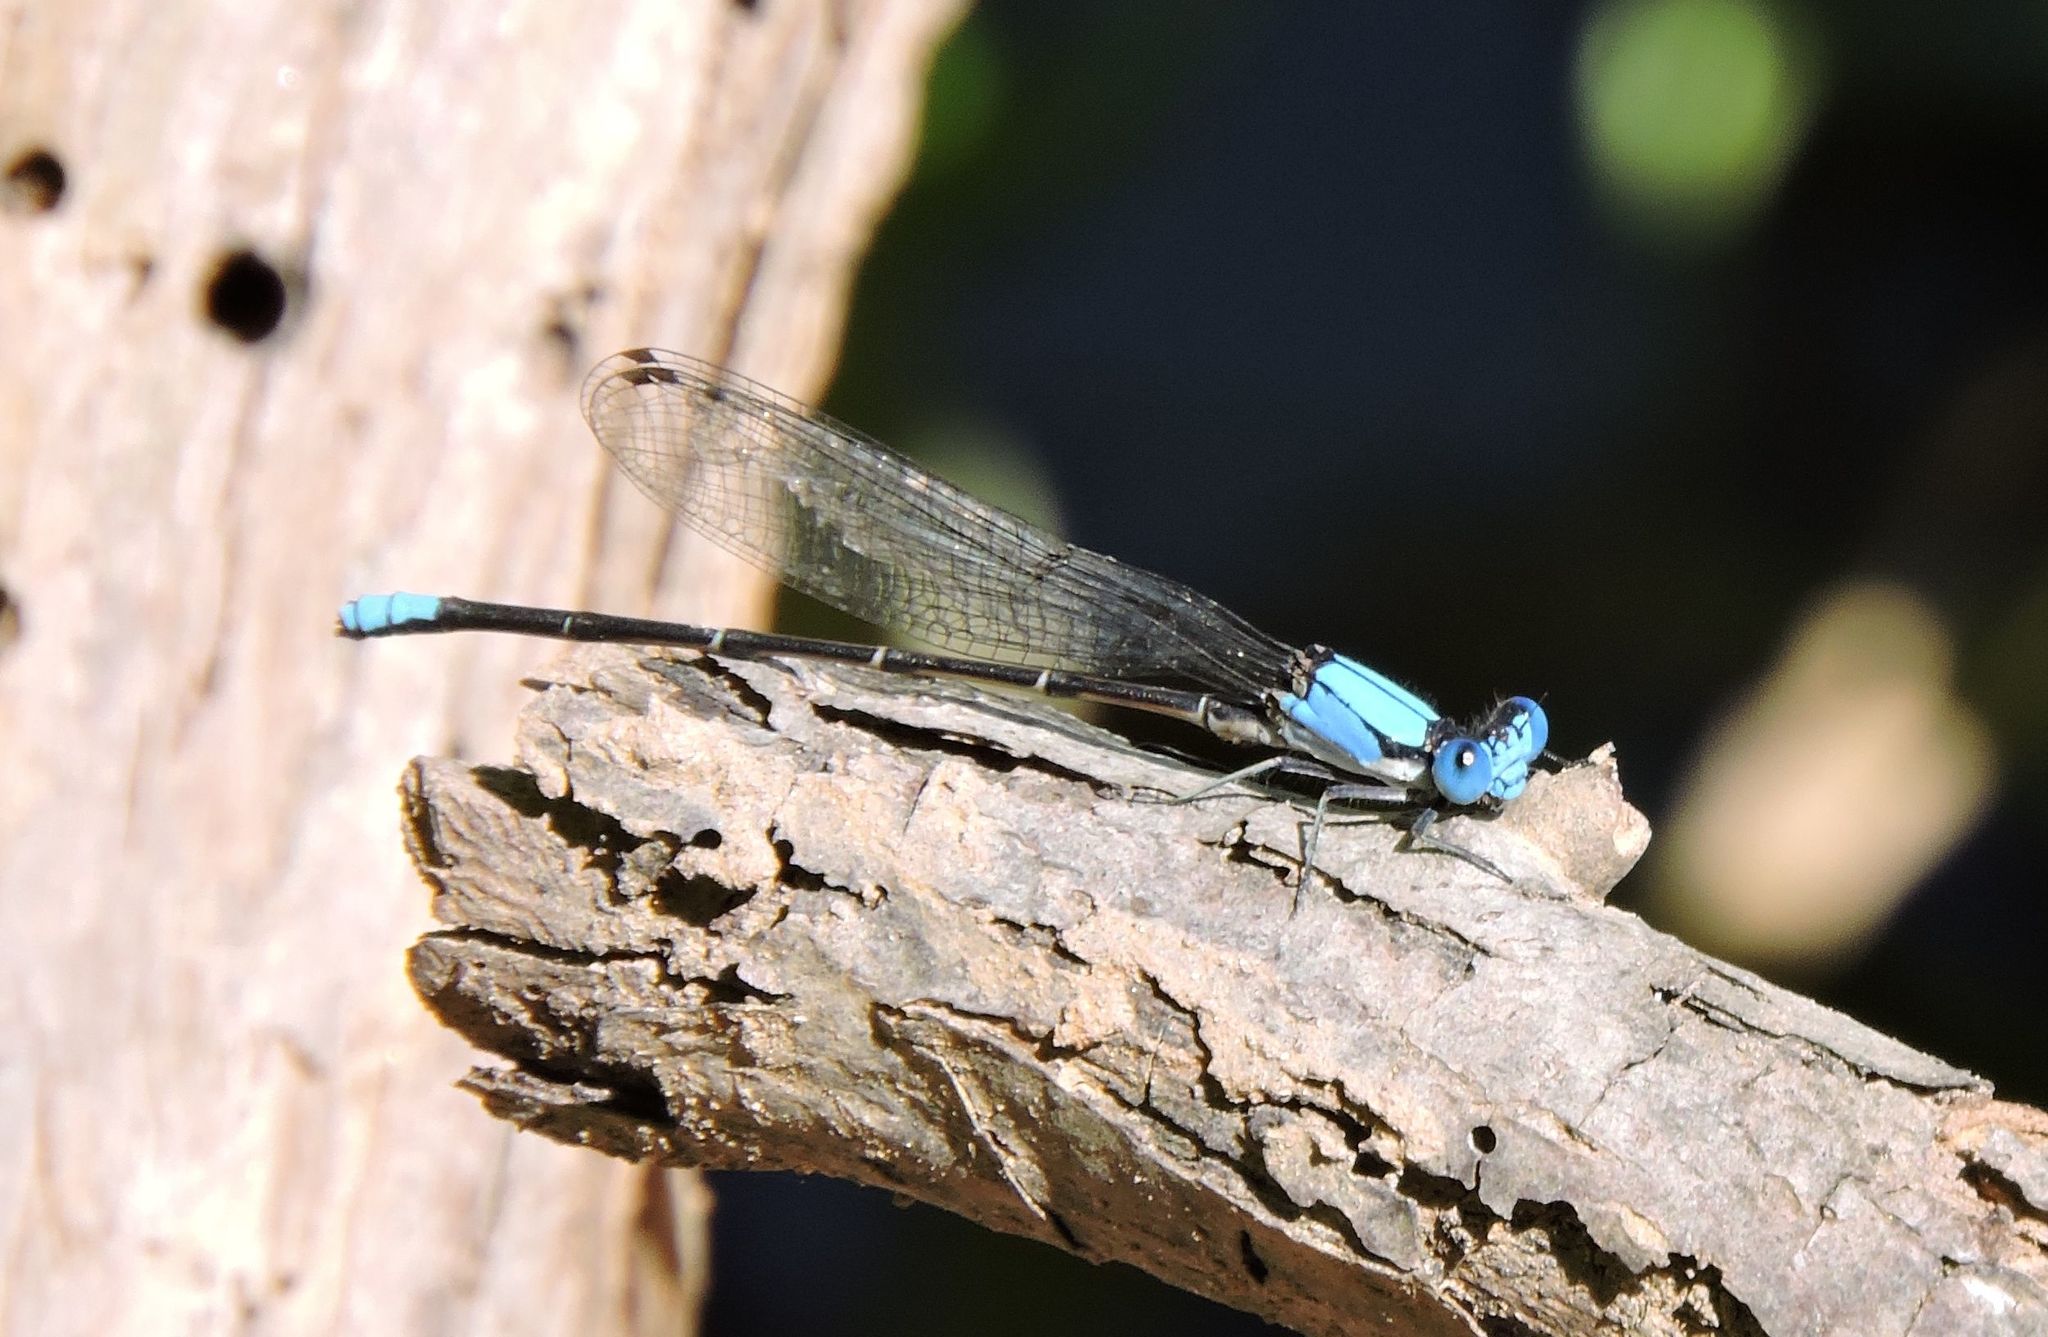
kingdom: Animalia
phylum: Arthropoda
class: Insecta
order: Odonata
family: Coenagrionidae
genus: Argia
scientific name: Argia apicalis
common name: Blue-fronted dancer
